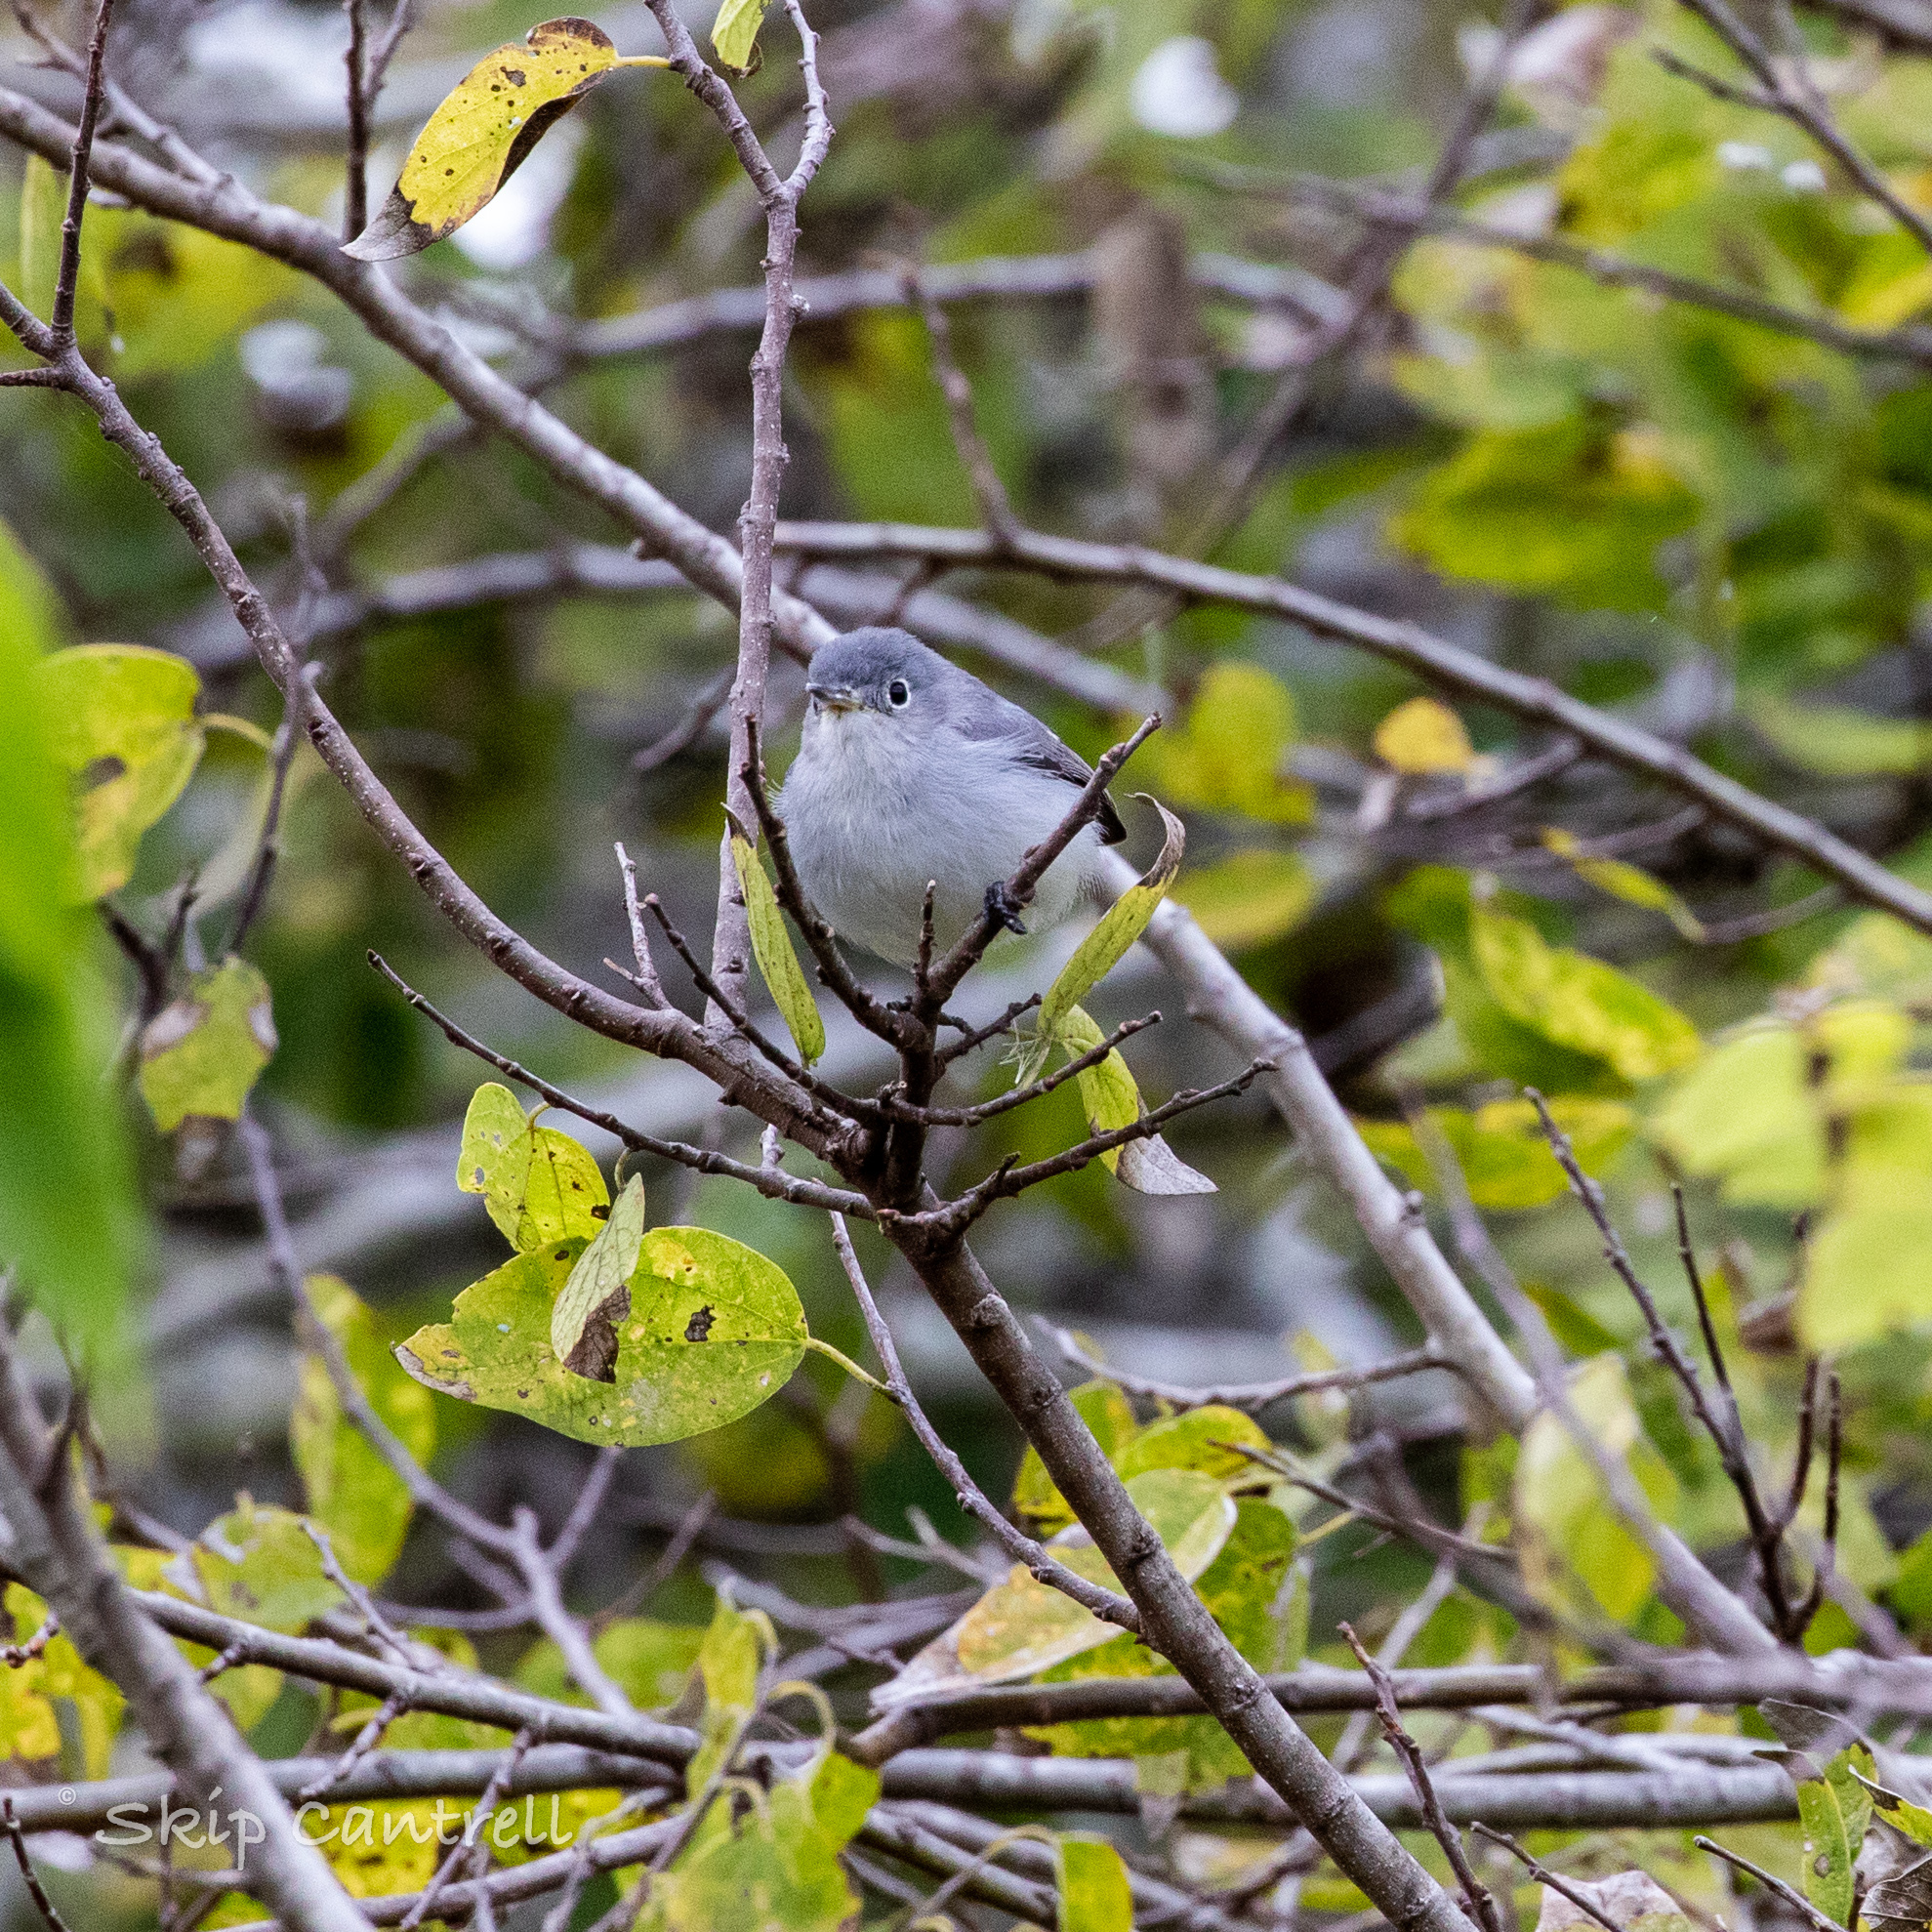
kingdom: Animalia
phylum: Chordata
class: Aves
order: Passeriformes
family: Polioptilidae
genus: Polioptila
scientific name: Polioptila caerulea
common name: Blue-gray gnatcatcher
